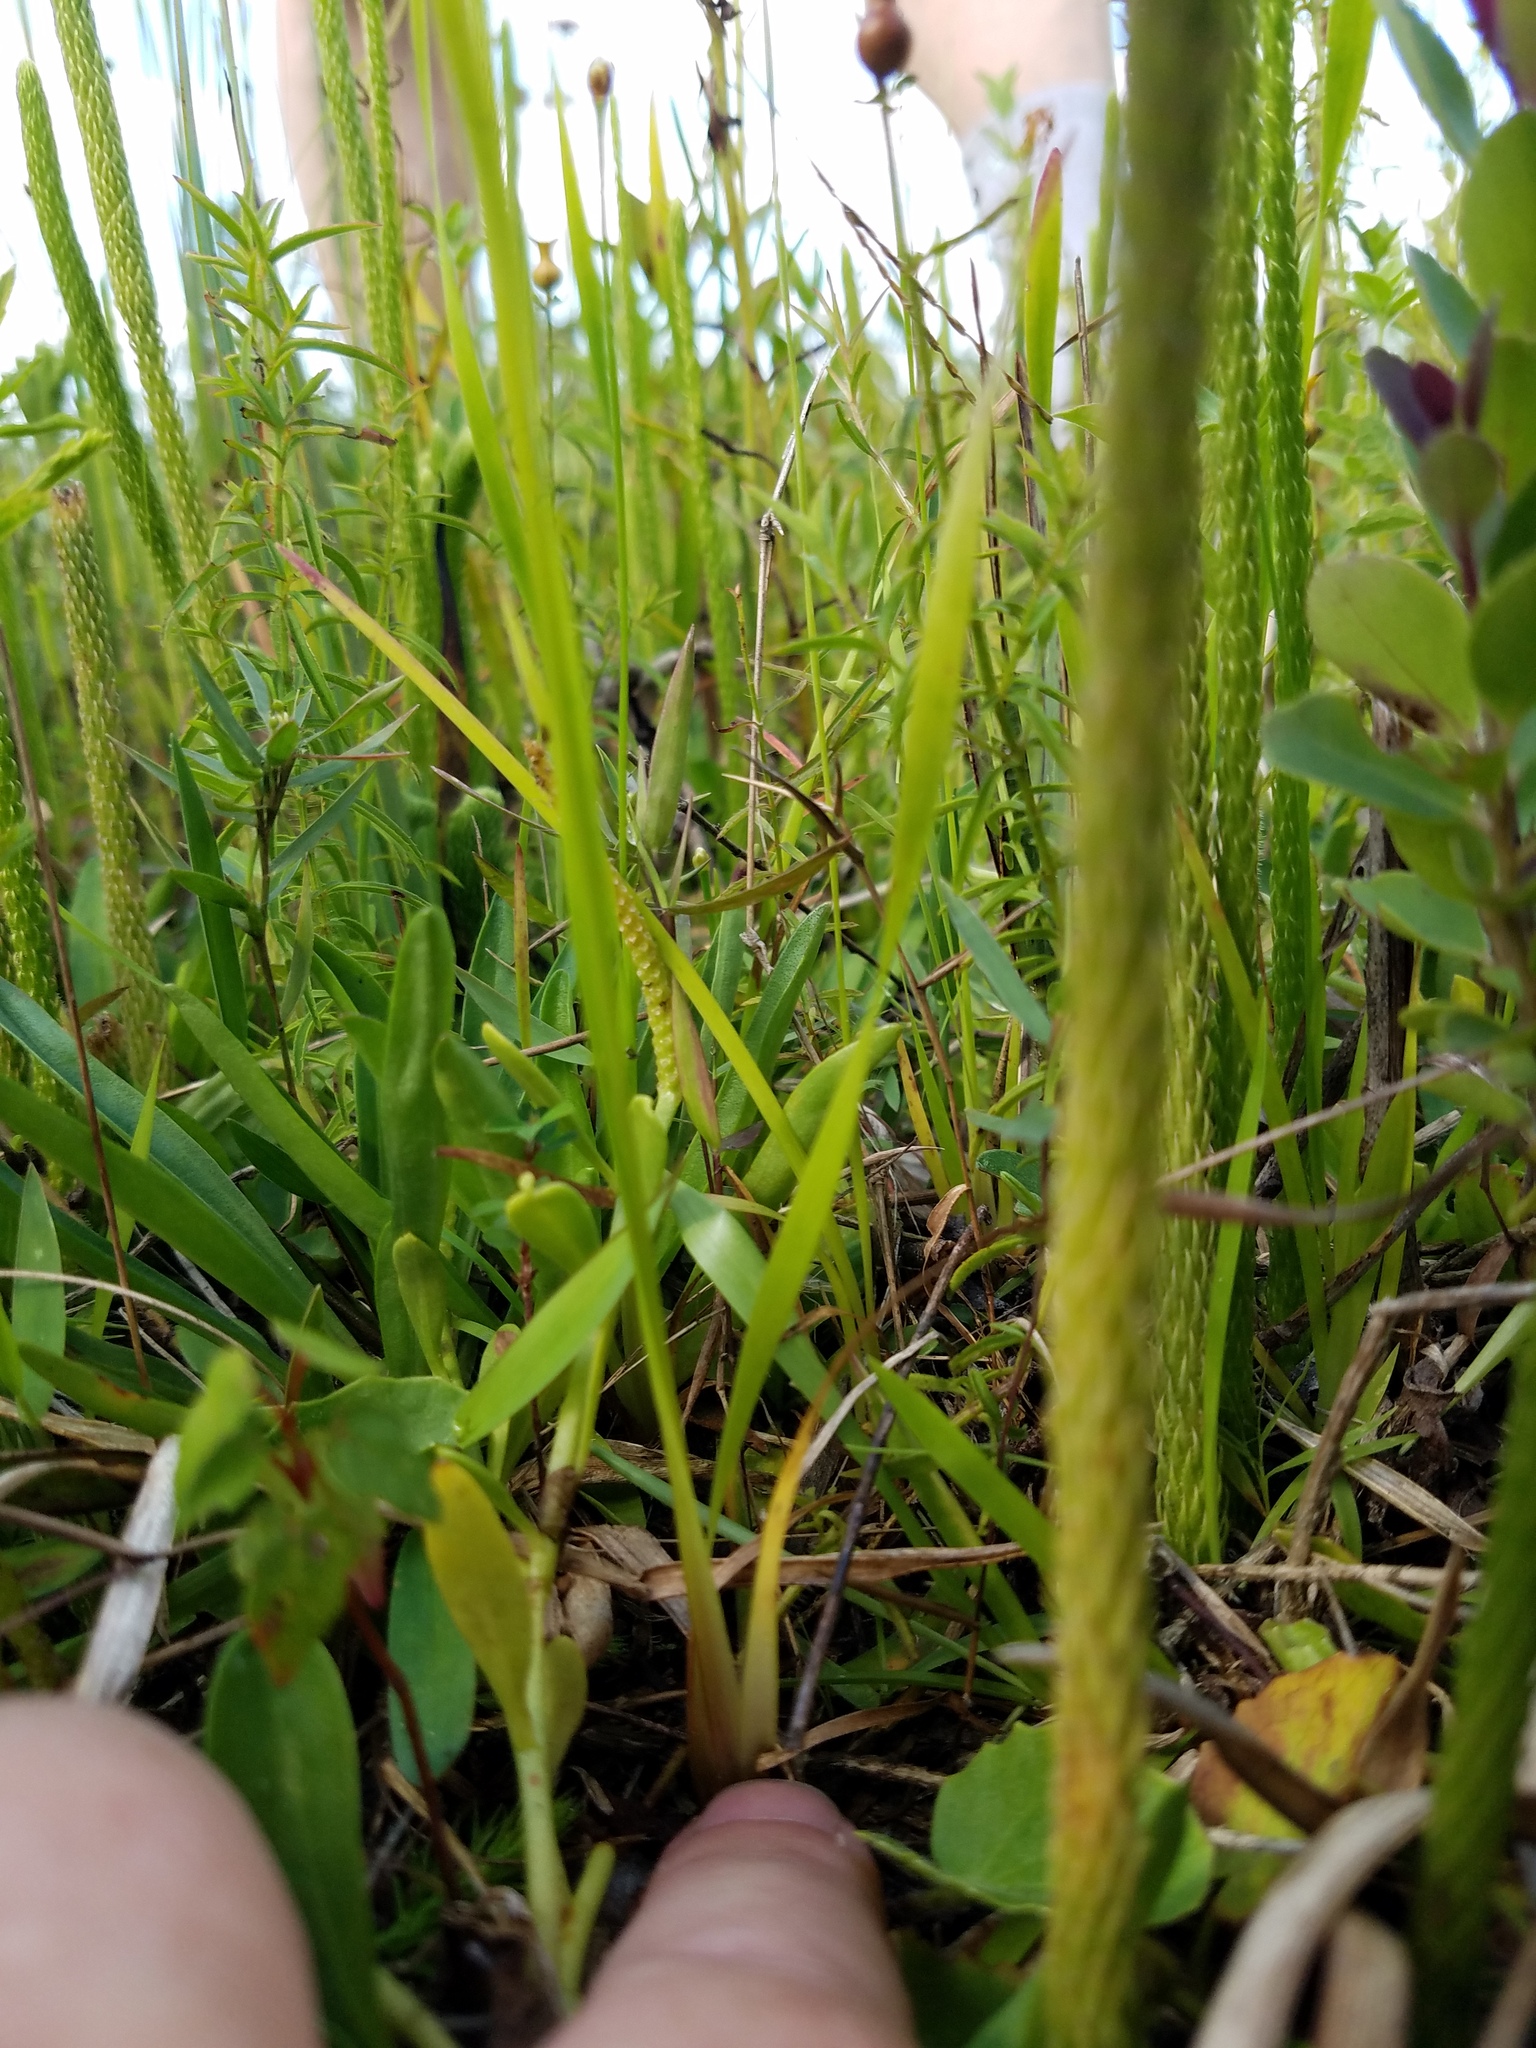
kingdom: Plantae
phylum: Tracheophyta
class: Liliopsida
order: Poales
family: Xyridaceae
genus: Xyris
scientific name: Xyris jupicai
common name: Richard's yelloweyed grass
